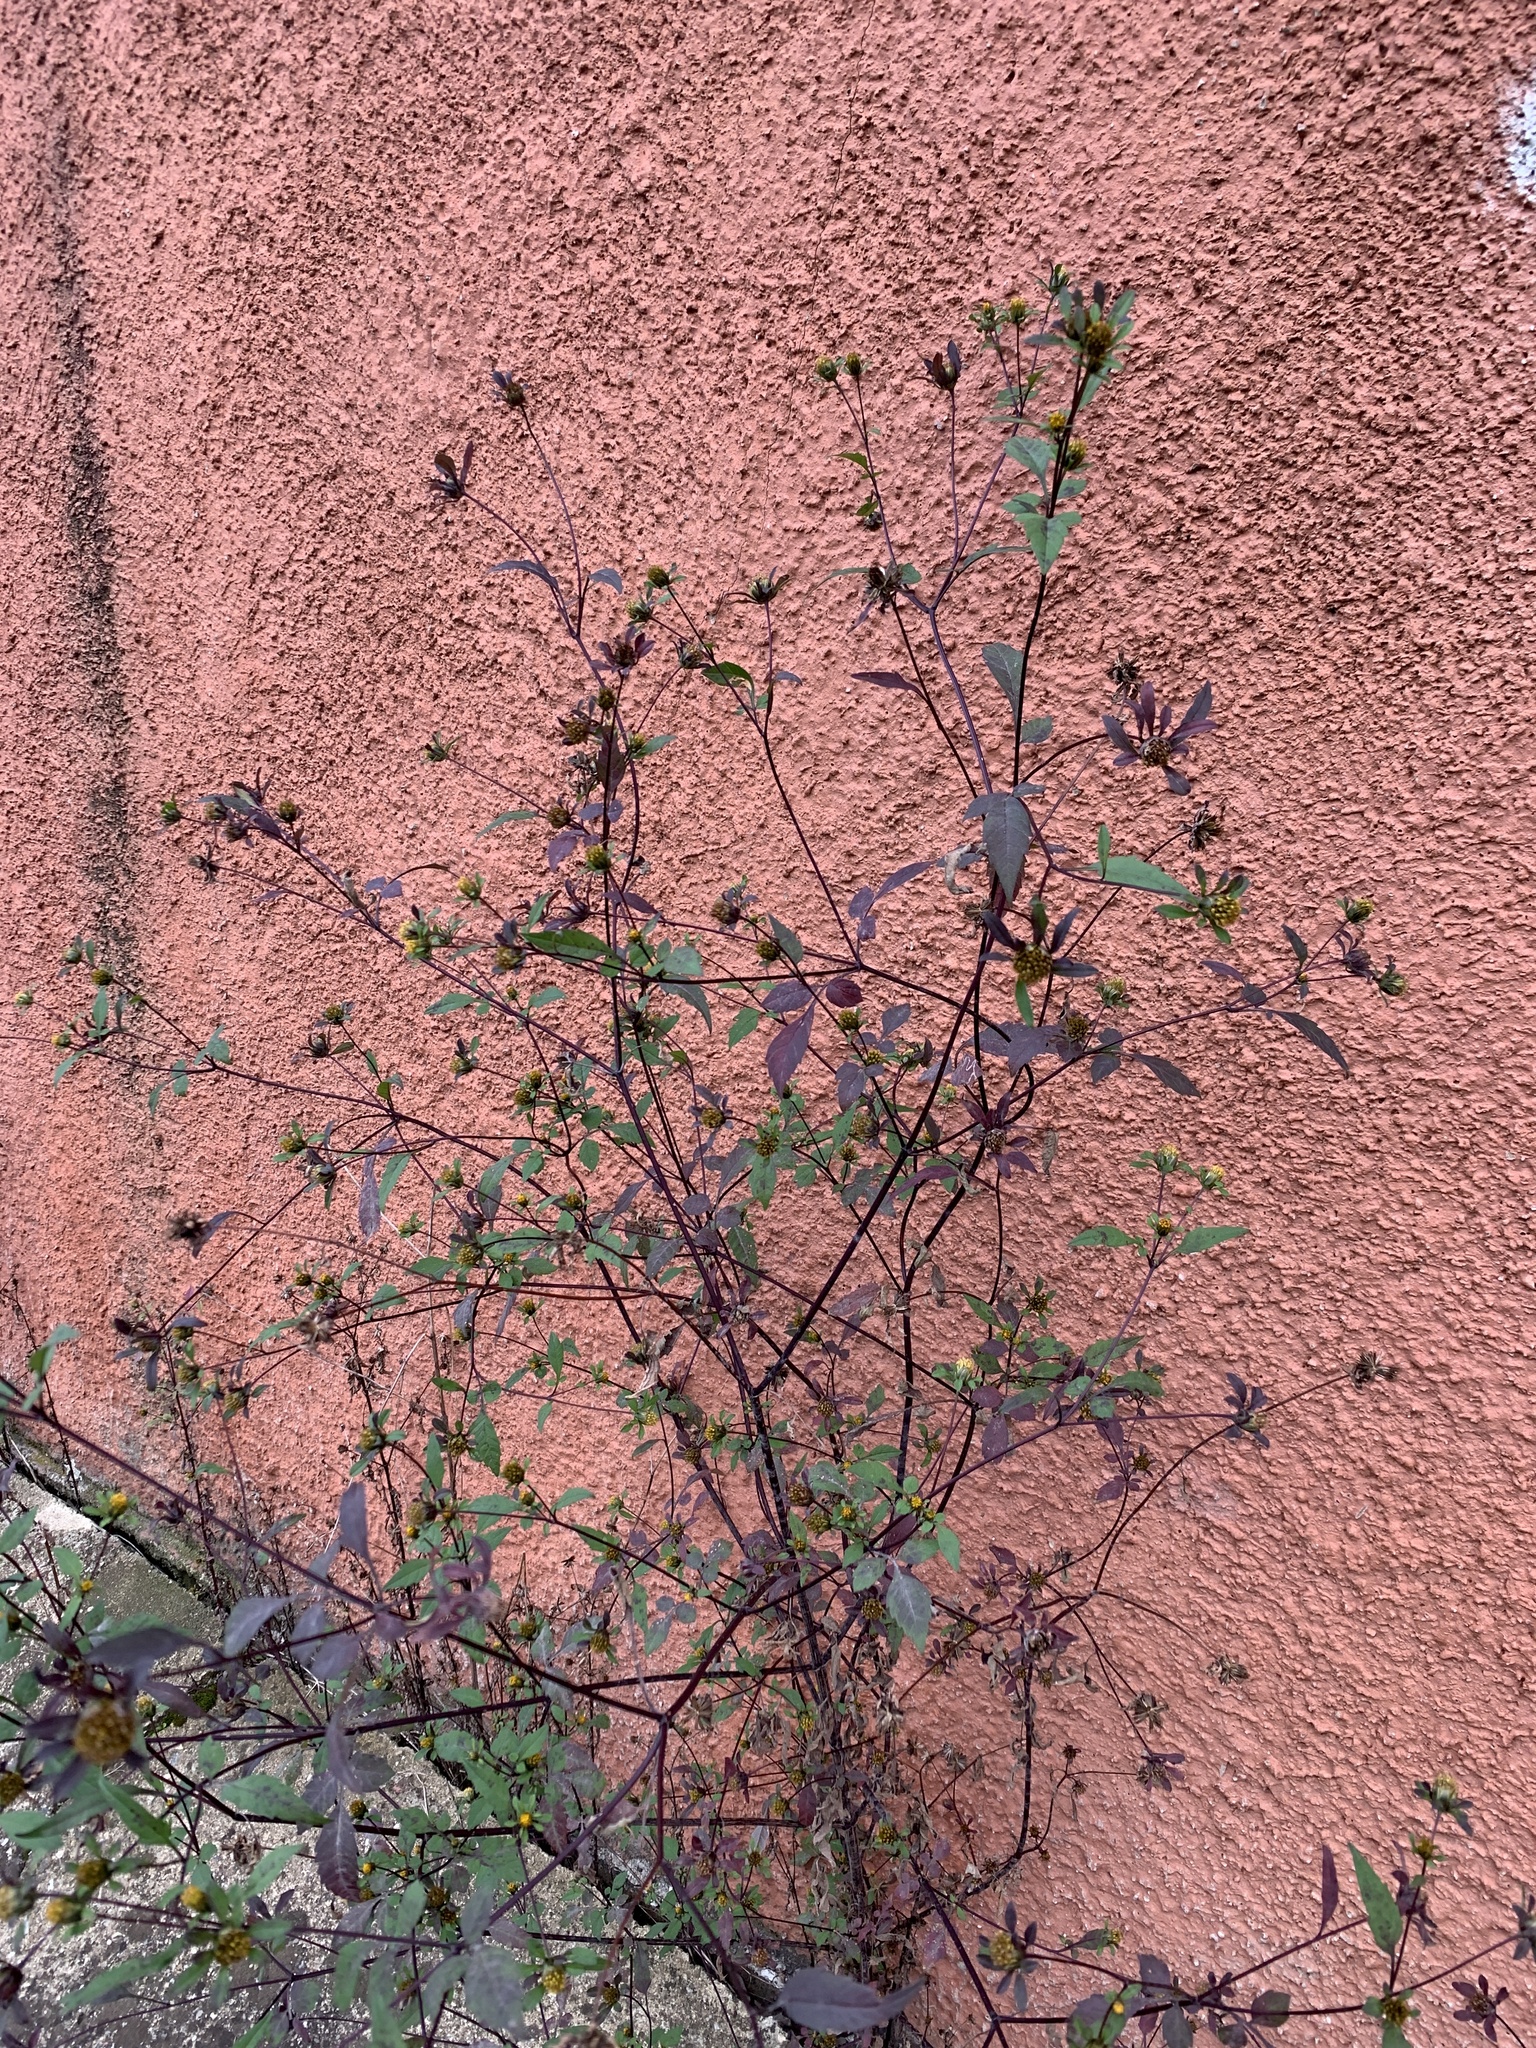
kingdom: Plantae
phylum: Tracheophyta
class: Magnoliopsida
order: Asterales
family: Asteraceae
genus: Bidens
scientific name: Bidens frondosa
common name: Beggarticks
